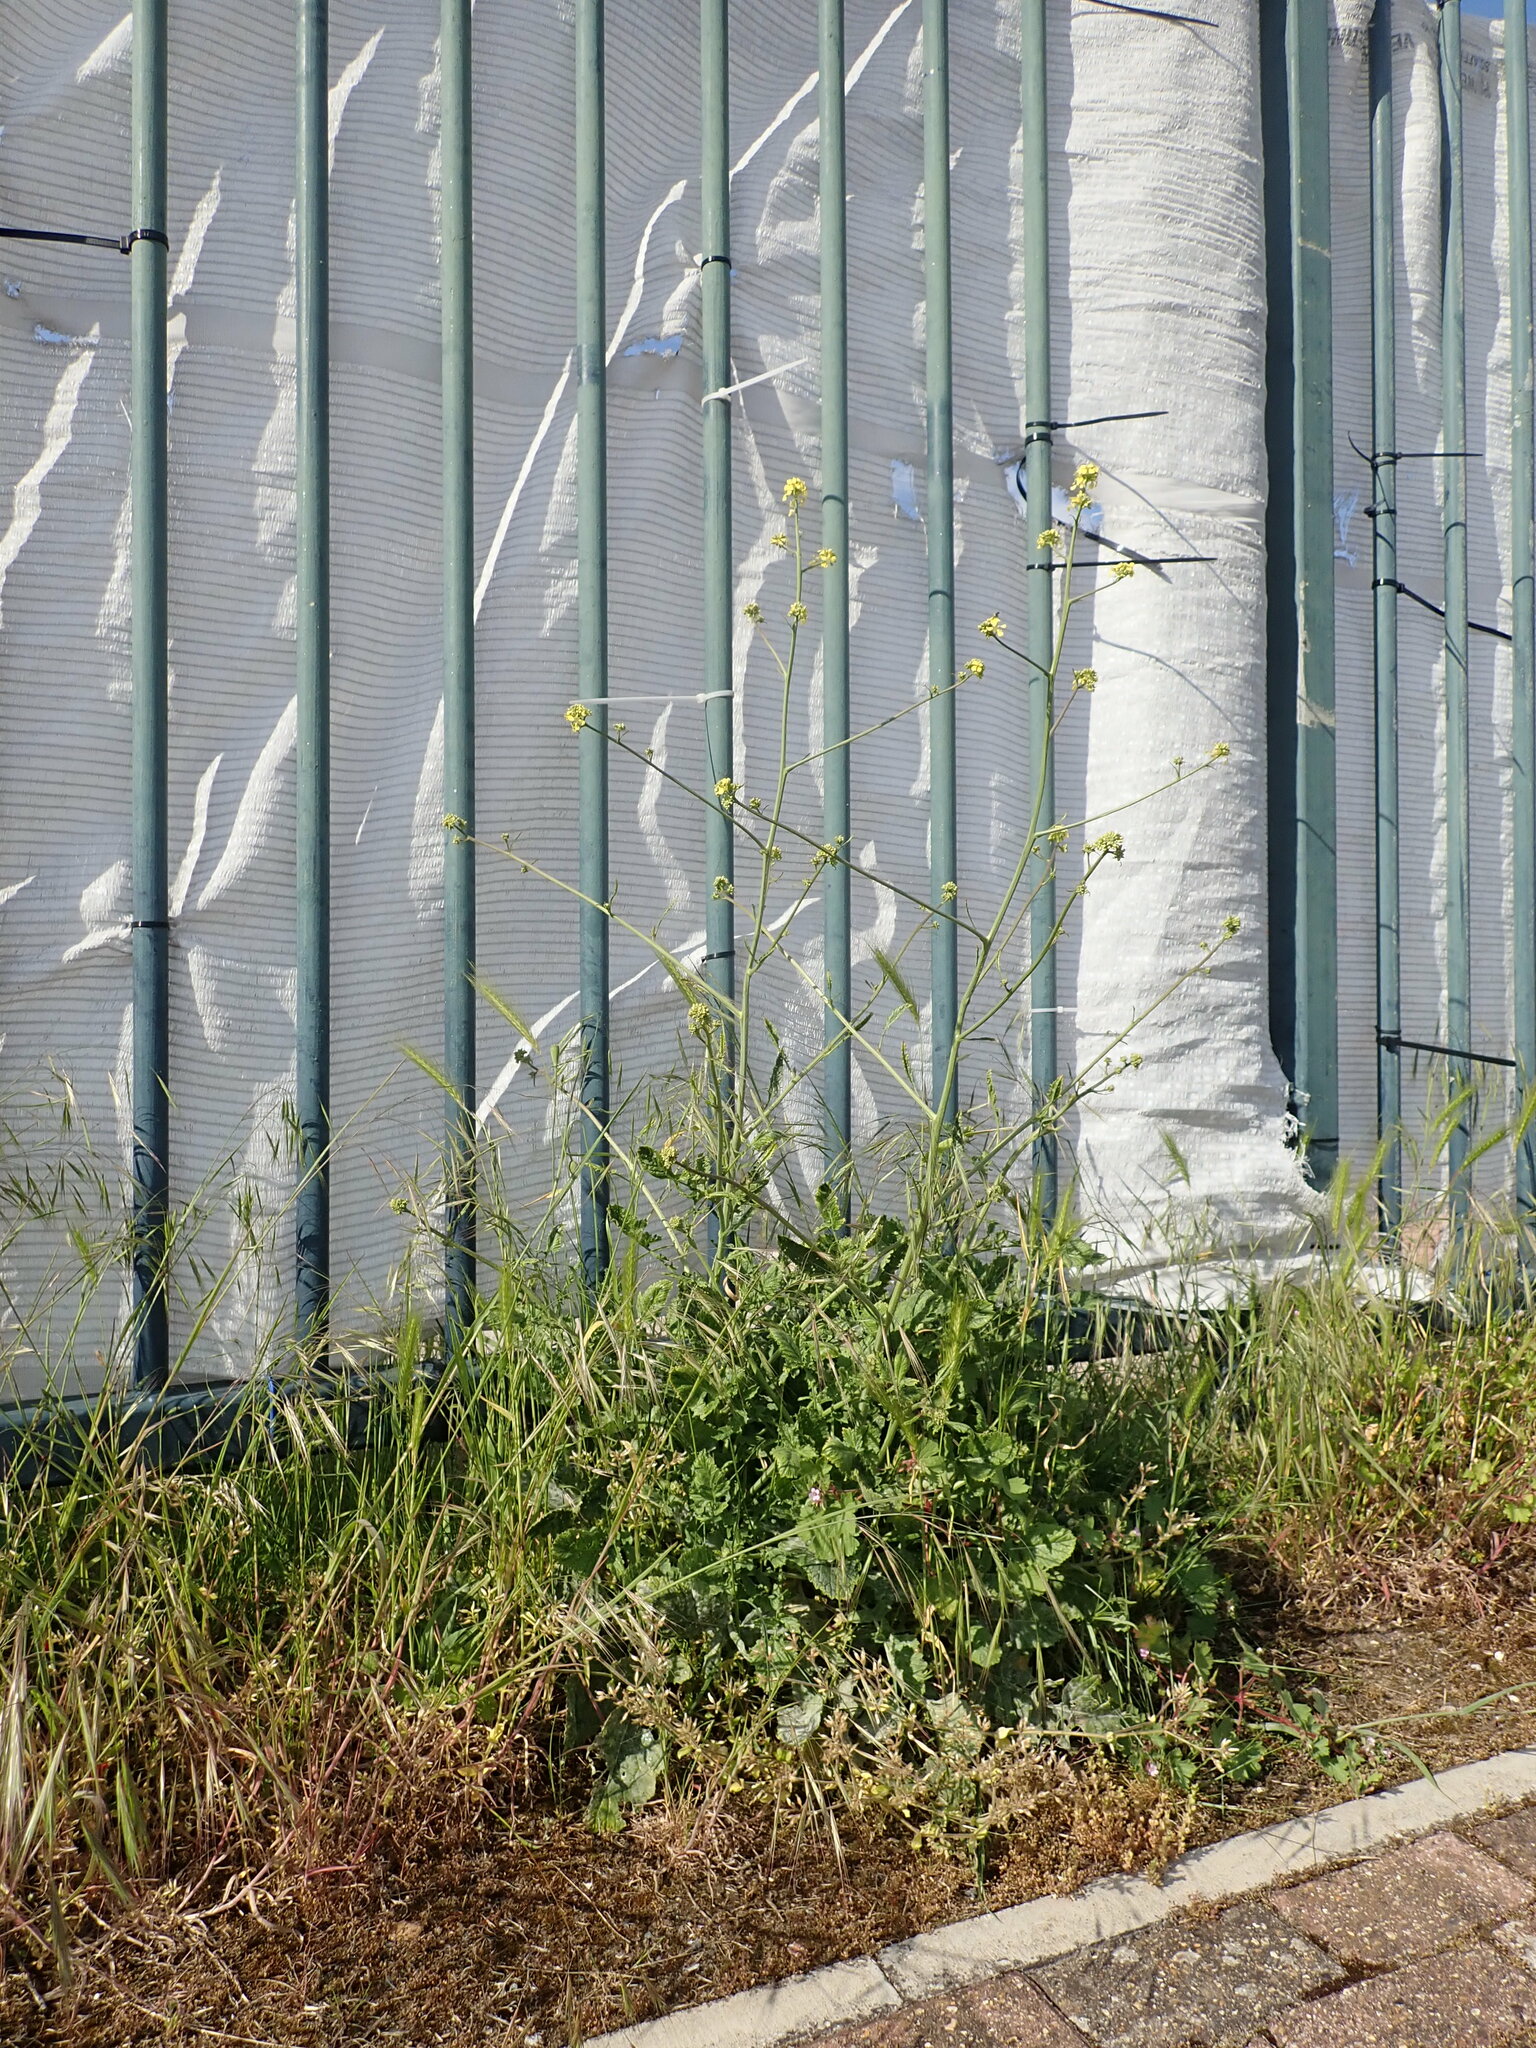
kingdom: Plantae
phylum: Tracheophyta
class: Magnoliopsida
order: Brassicales
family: Brassicaceae
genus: Hirschfeldia
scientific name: Hirschfeldia incana
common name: Hoary mustard
